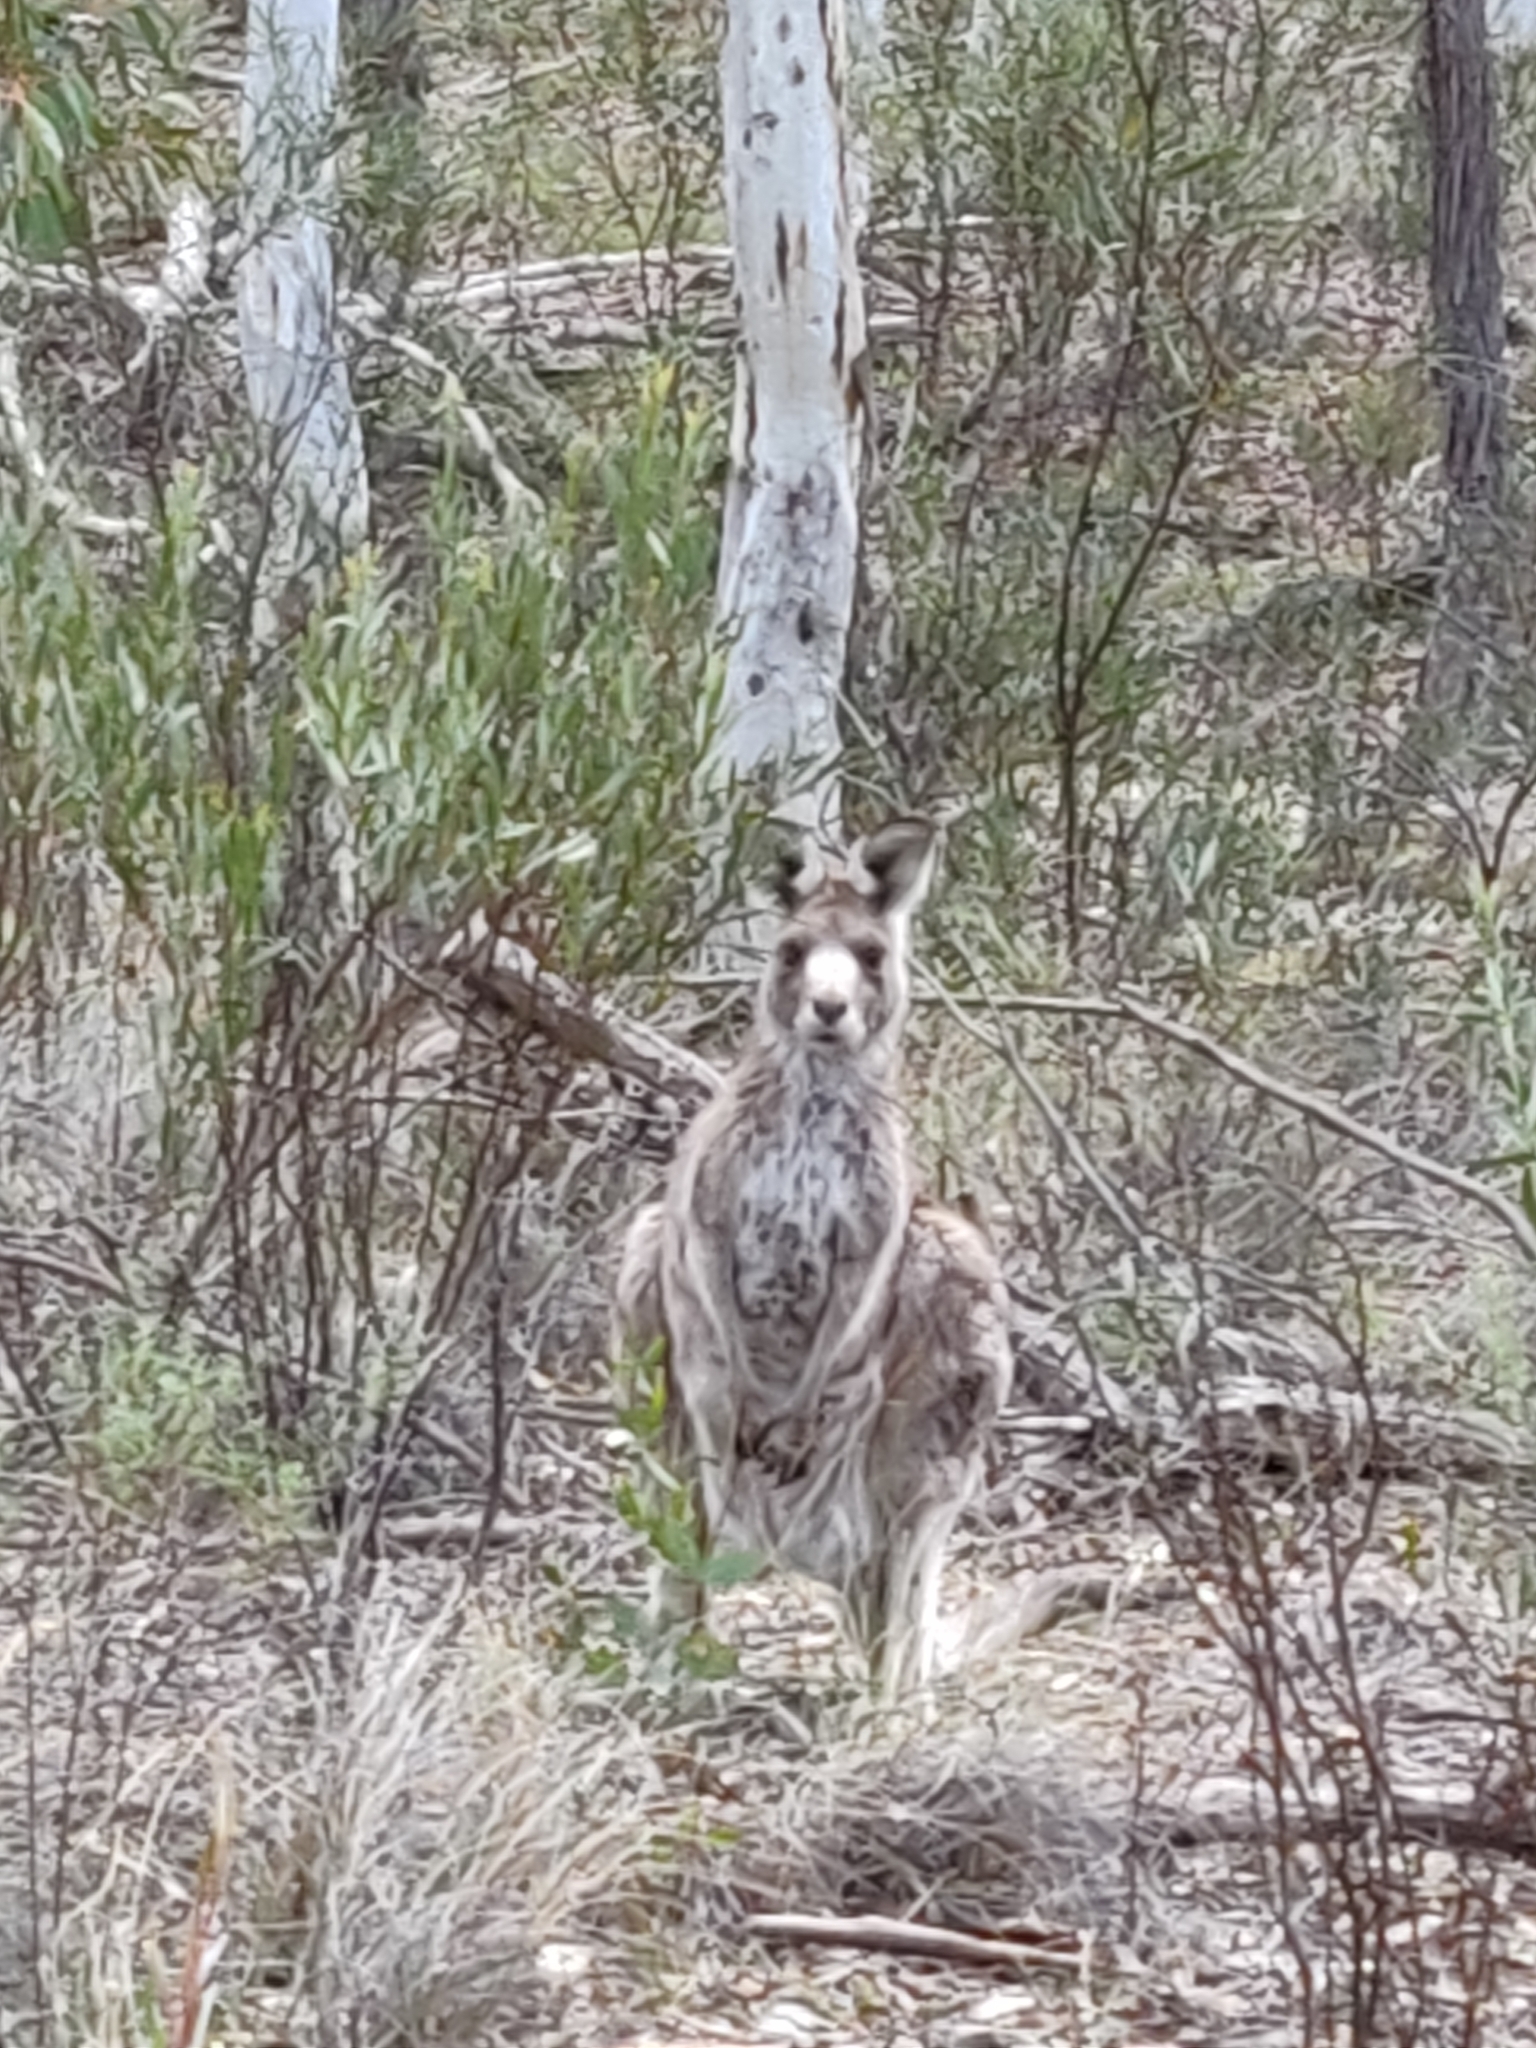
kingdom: Animalia
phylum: Chordata
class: Mammalia
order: Diprotodontia
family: Macropodidae
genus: Macropus
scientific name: Macropus giganteus
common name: Eastern grey kangaroo
